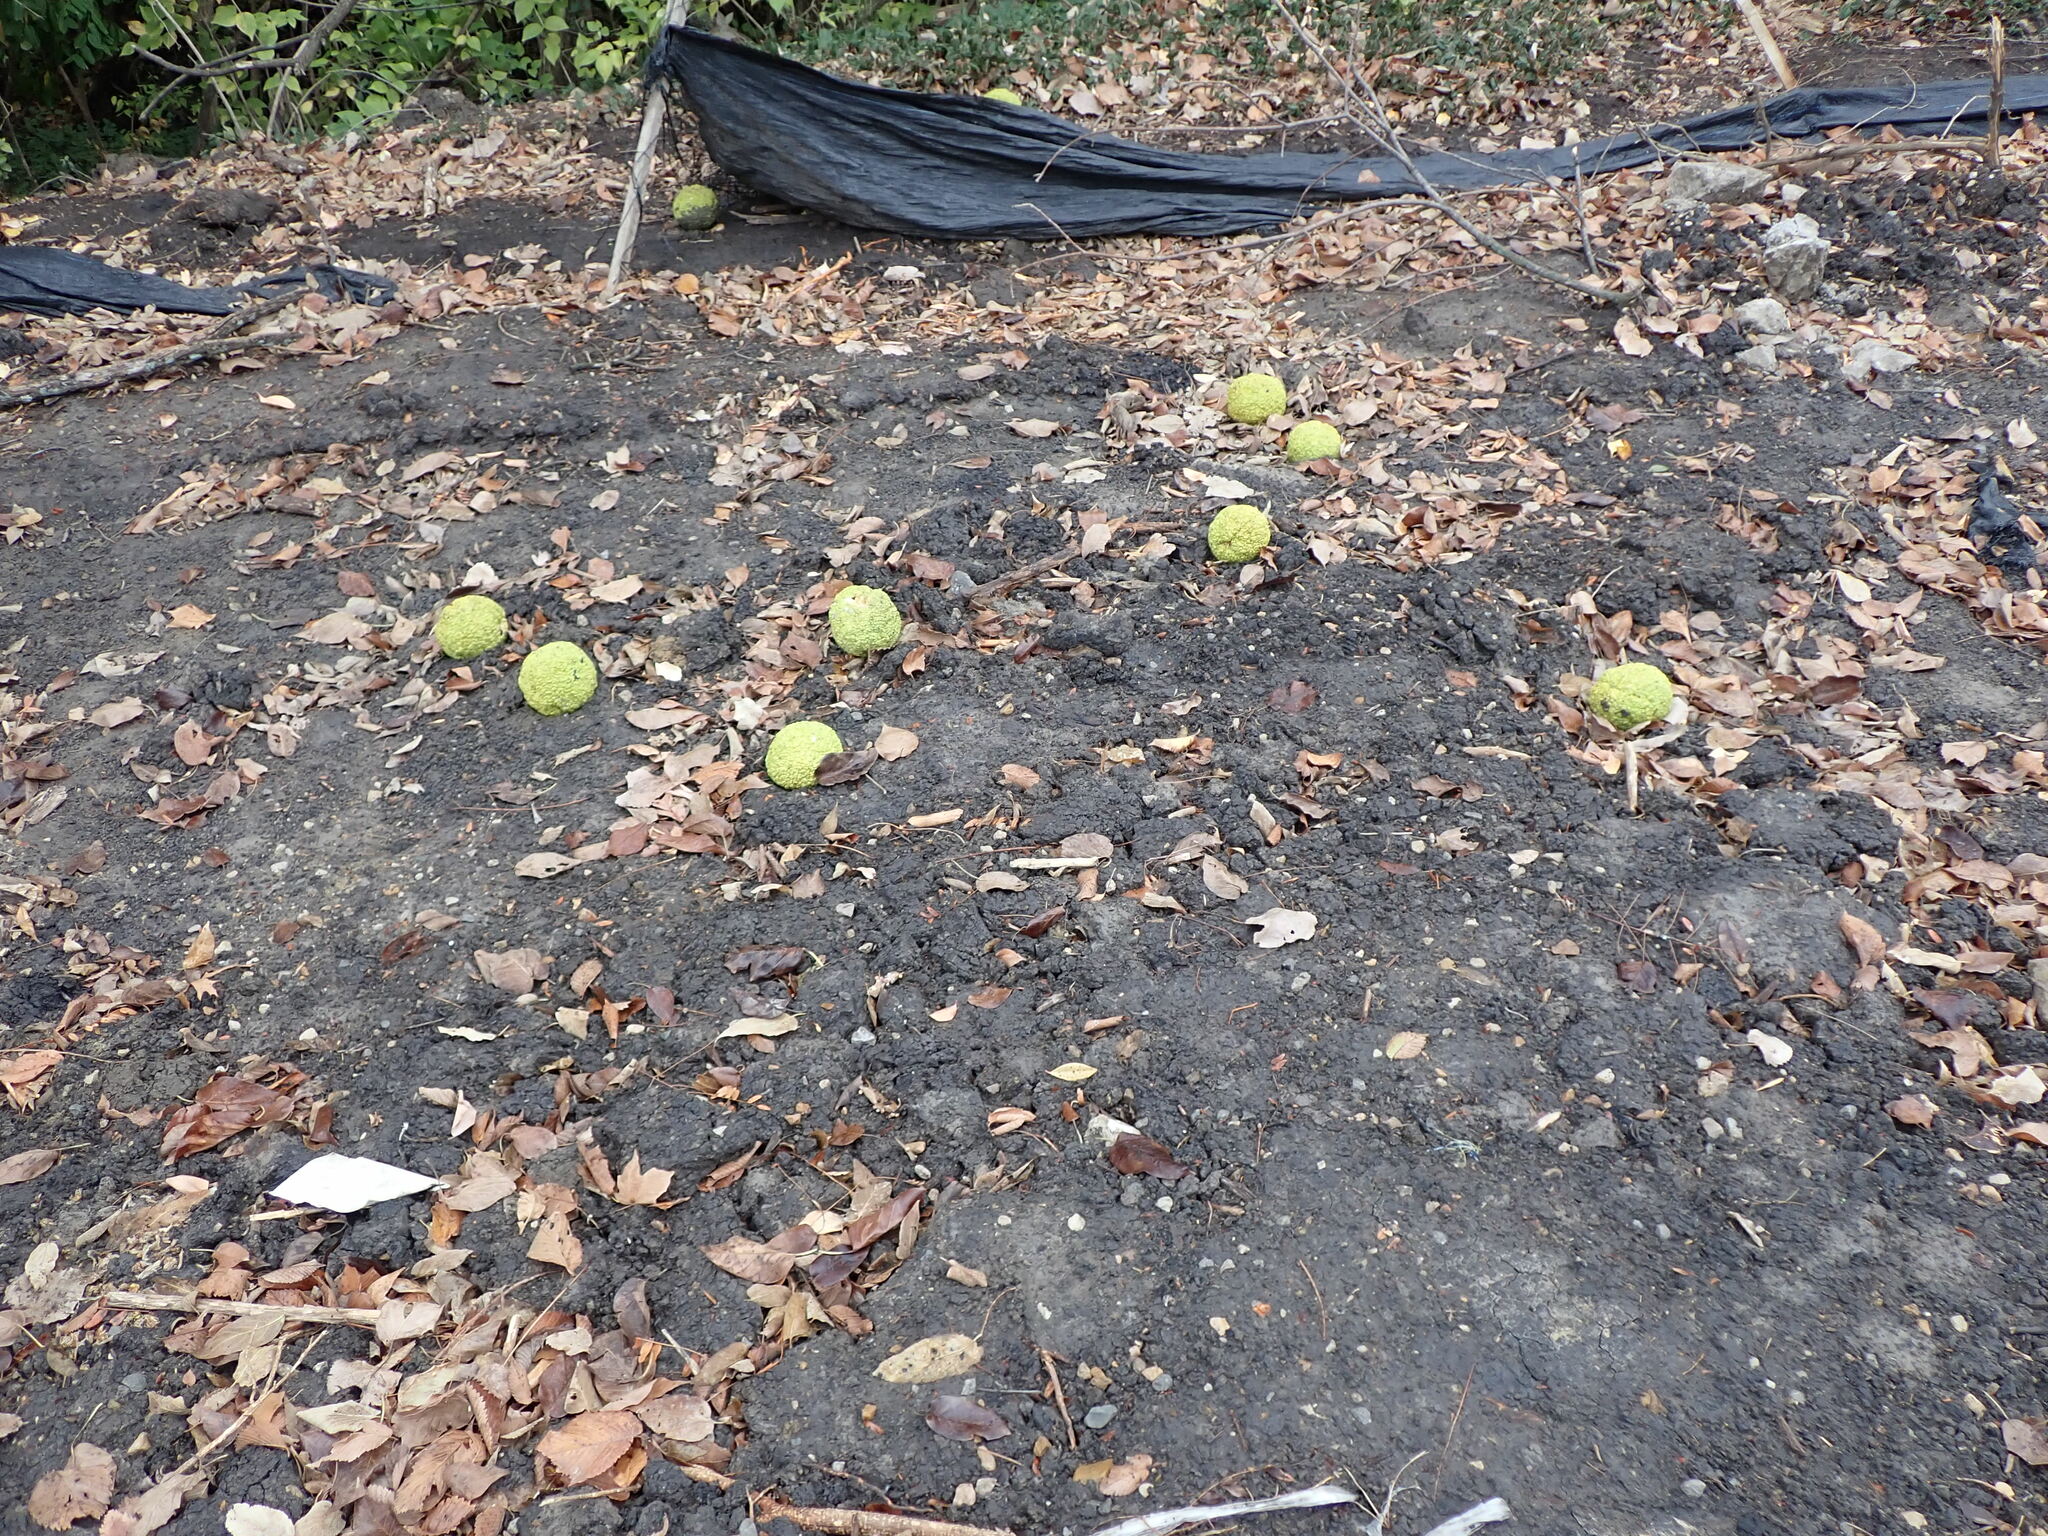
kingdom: Plantae
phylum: Tracheophyta
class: Magnoliopsida
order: Rosales
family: Moraceae
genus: Maclura
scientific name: Maclura pomifera
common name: Osage-orange
